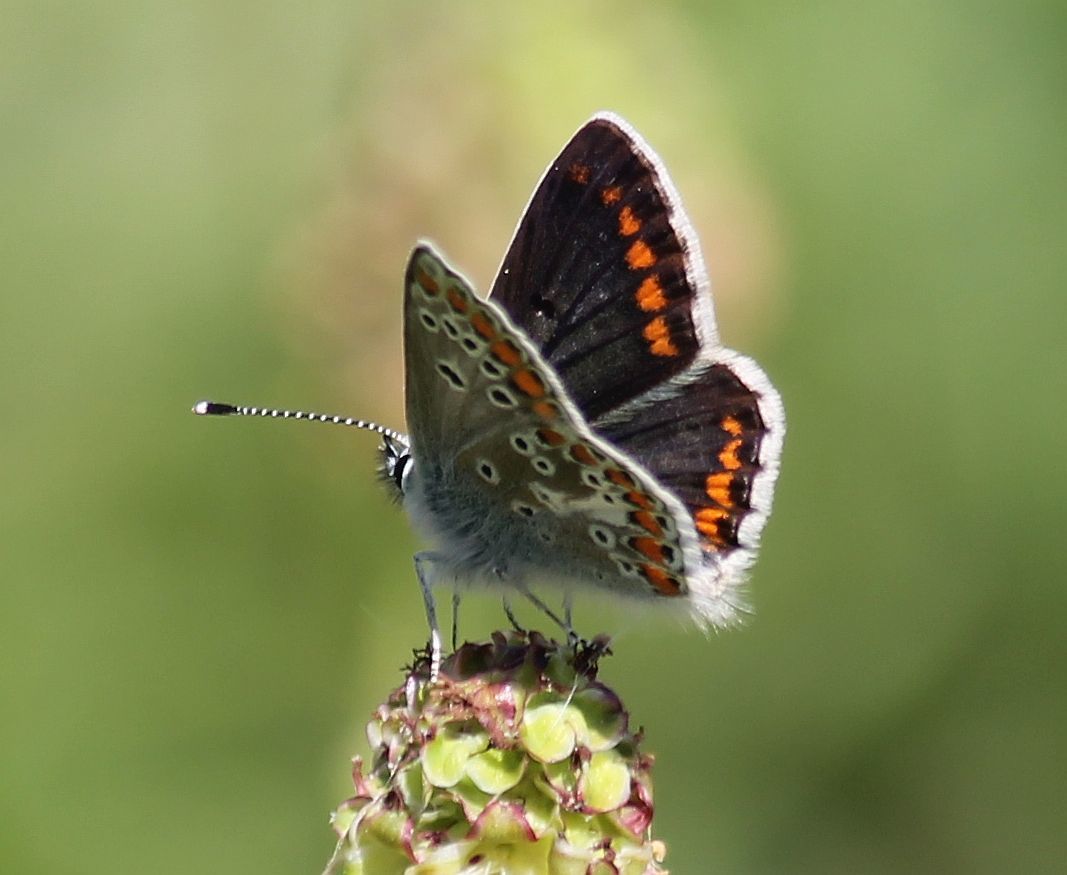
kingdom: Animalia
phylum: Arthropoda
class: Insecta
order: Lepidoptera
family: Lycaenidae
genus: Aricia
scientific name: Aricia agestis
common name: Brown argus
